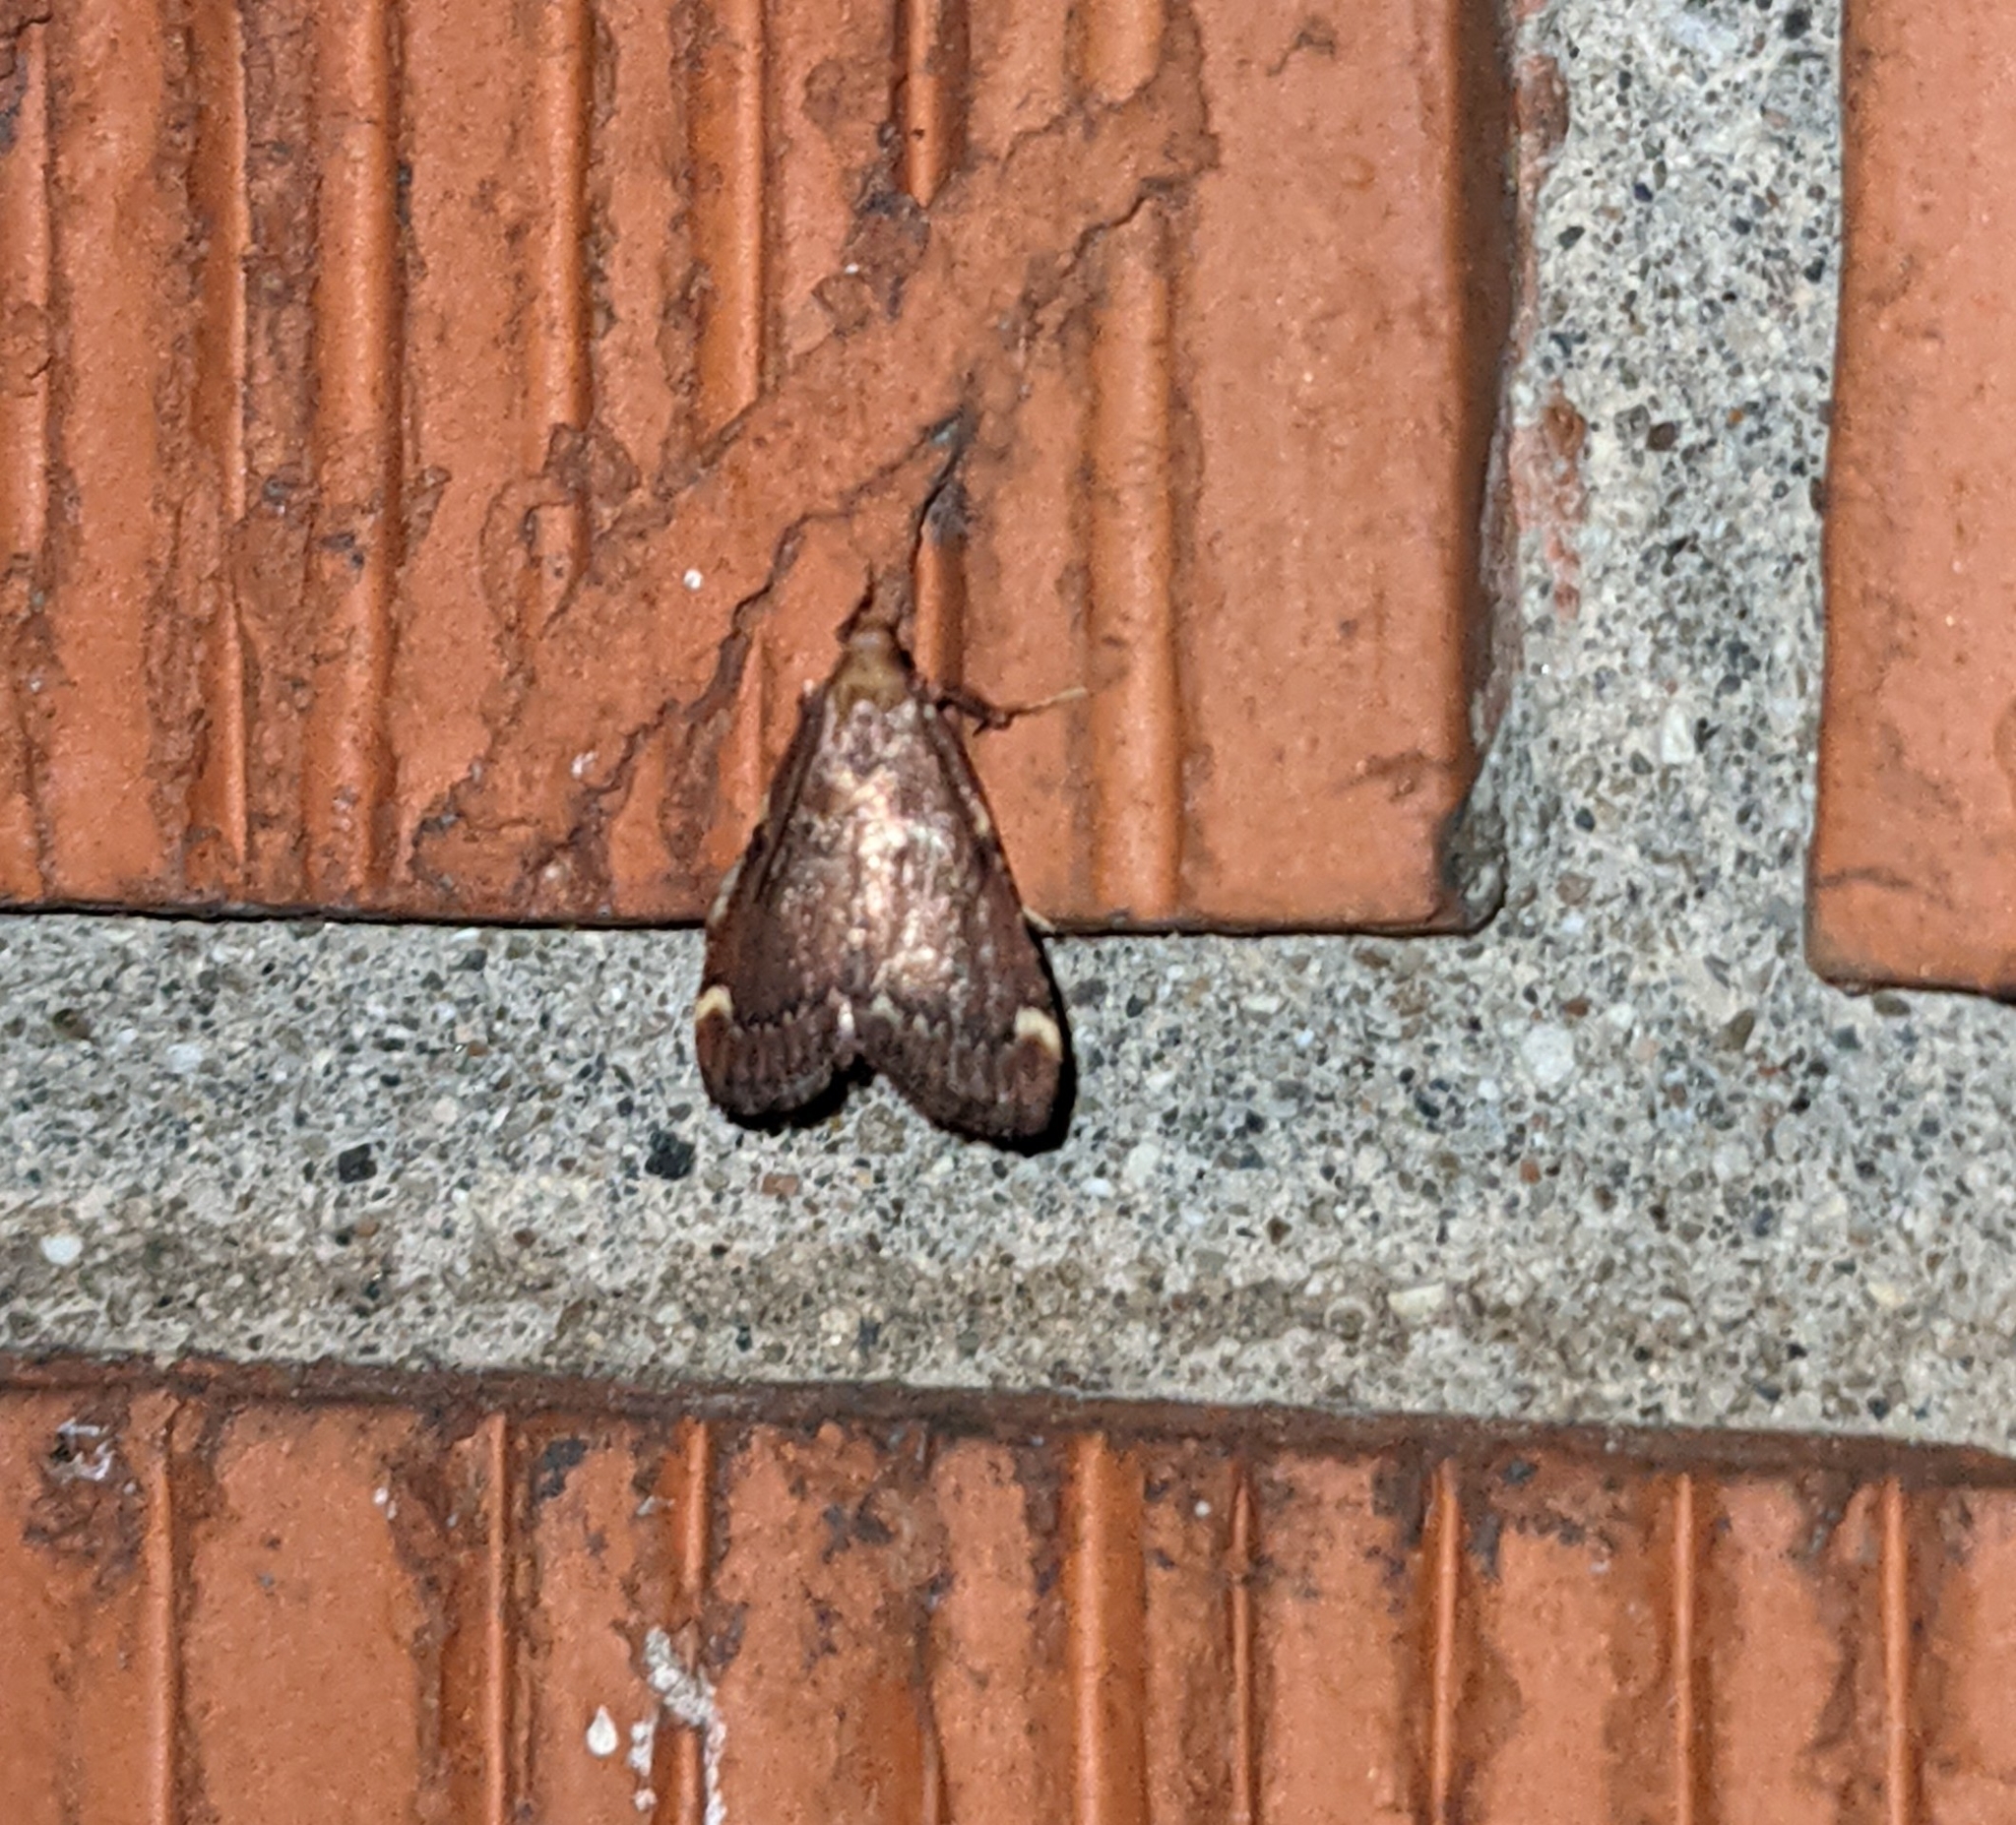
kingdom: Animalia
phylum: Arthropoda
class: Insecta
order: Lepidoptera
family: Pyralidae
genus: Hypsopygia
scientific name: Hypsopygia intermedialis
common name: Red-shawled moth
